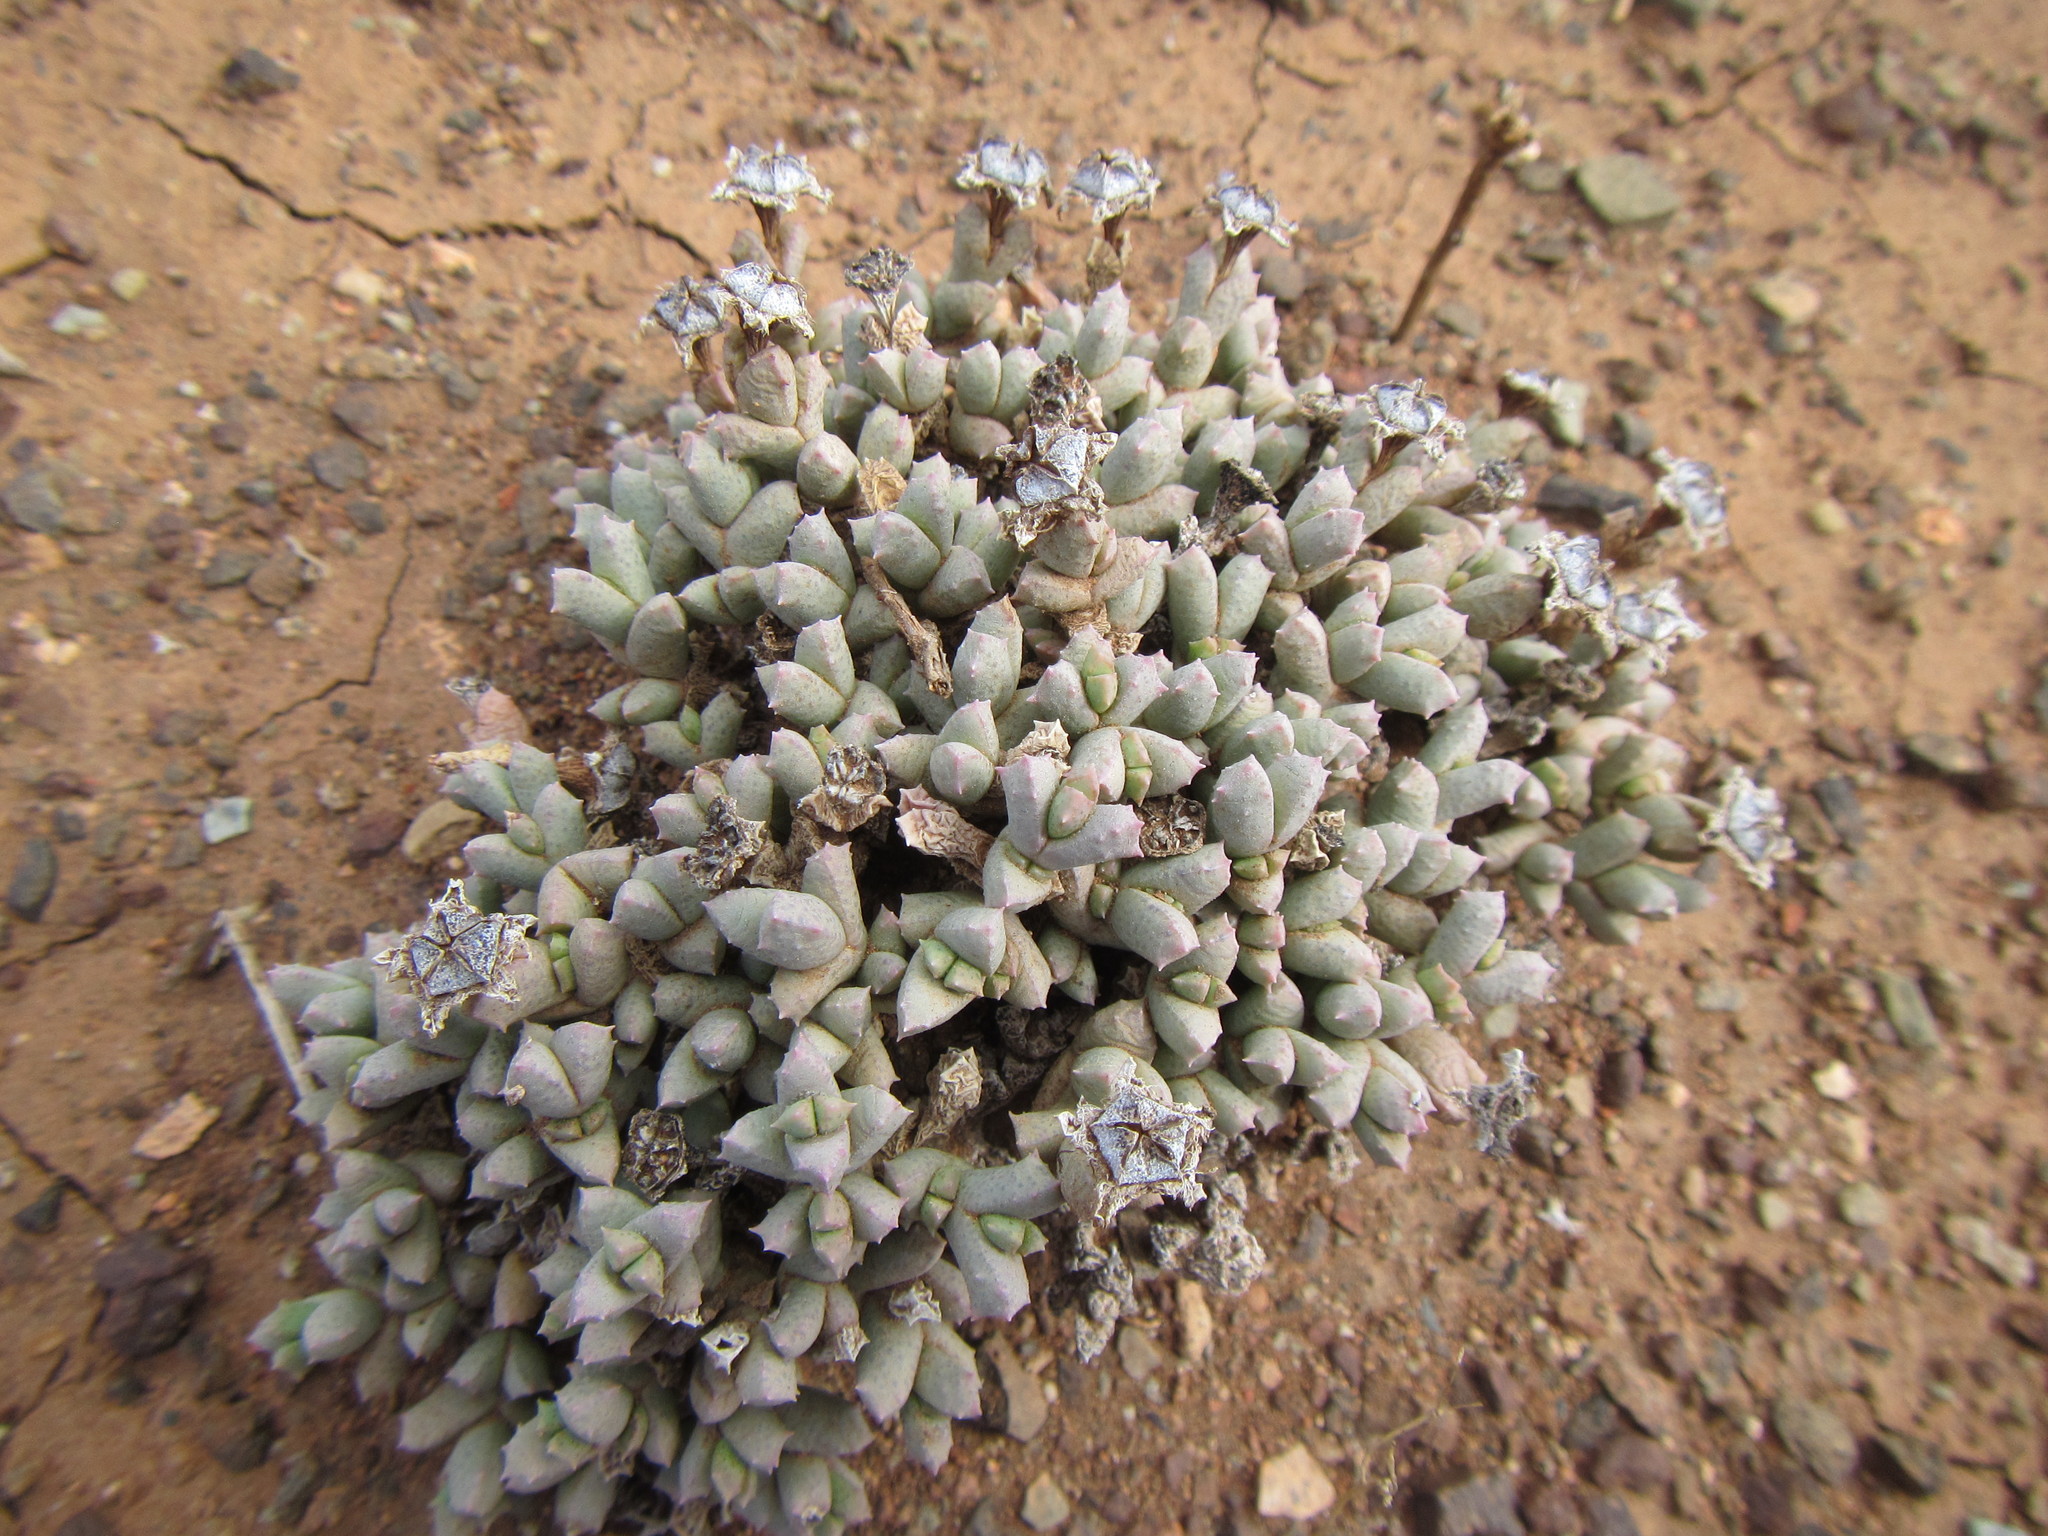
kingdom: Plantae
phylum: Tracheophyta
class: Magnoliopsida
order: Caryophyllales
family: Aizoaceae
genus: Ruschia
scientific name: Ruschia laxipetala
